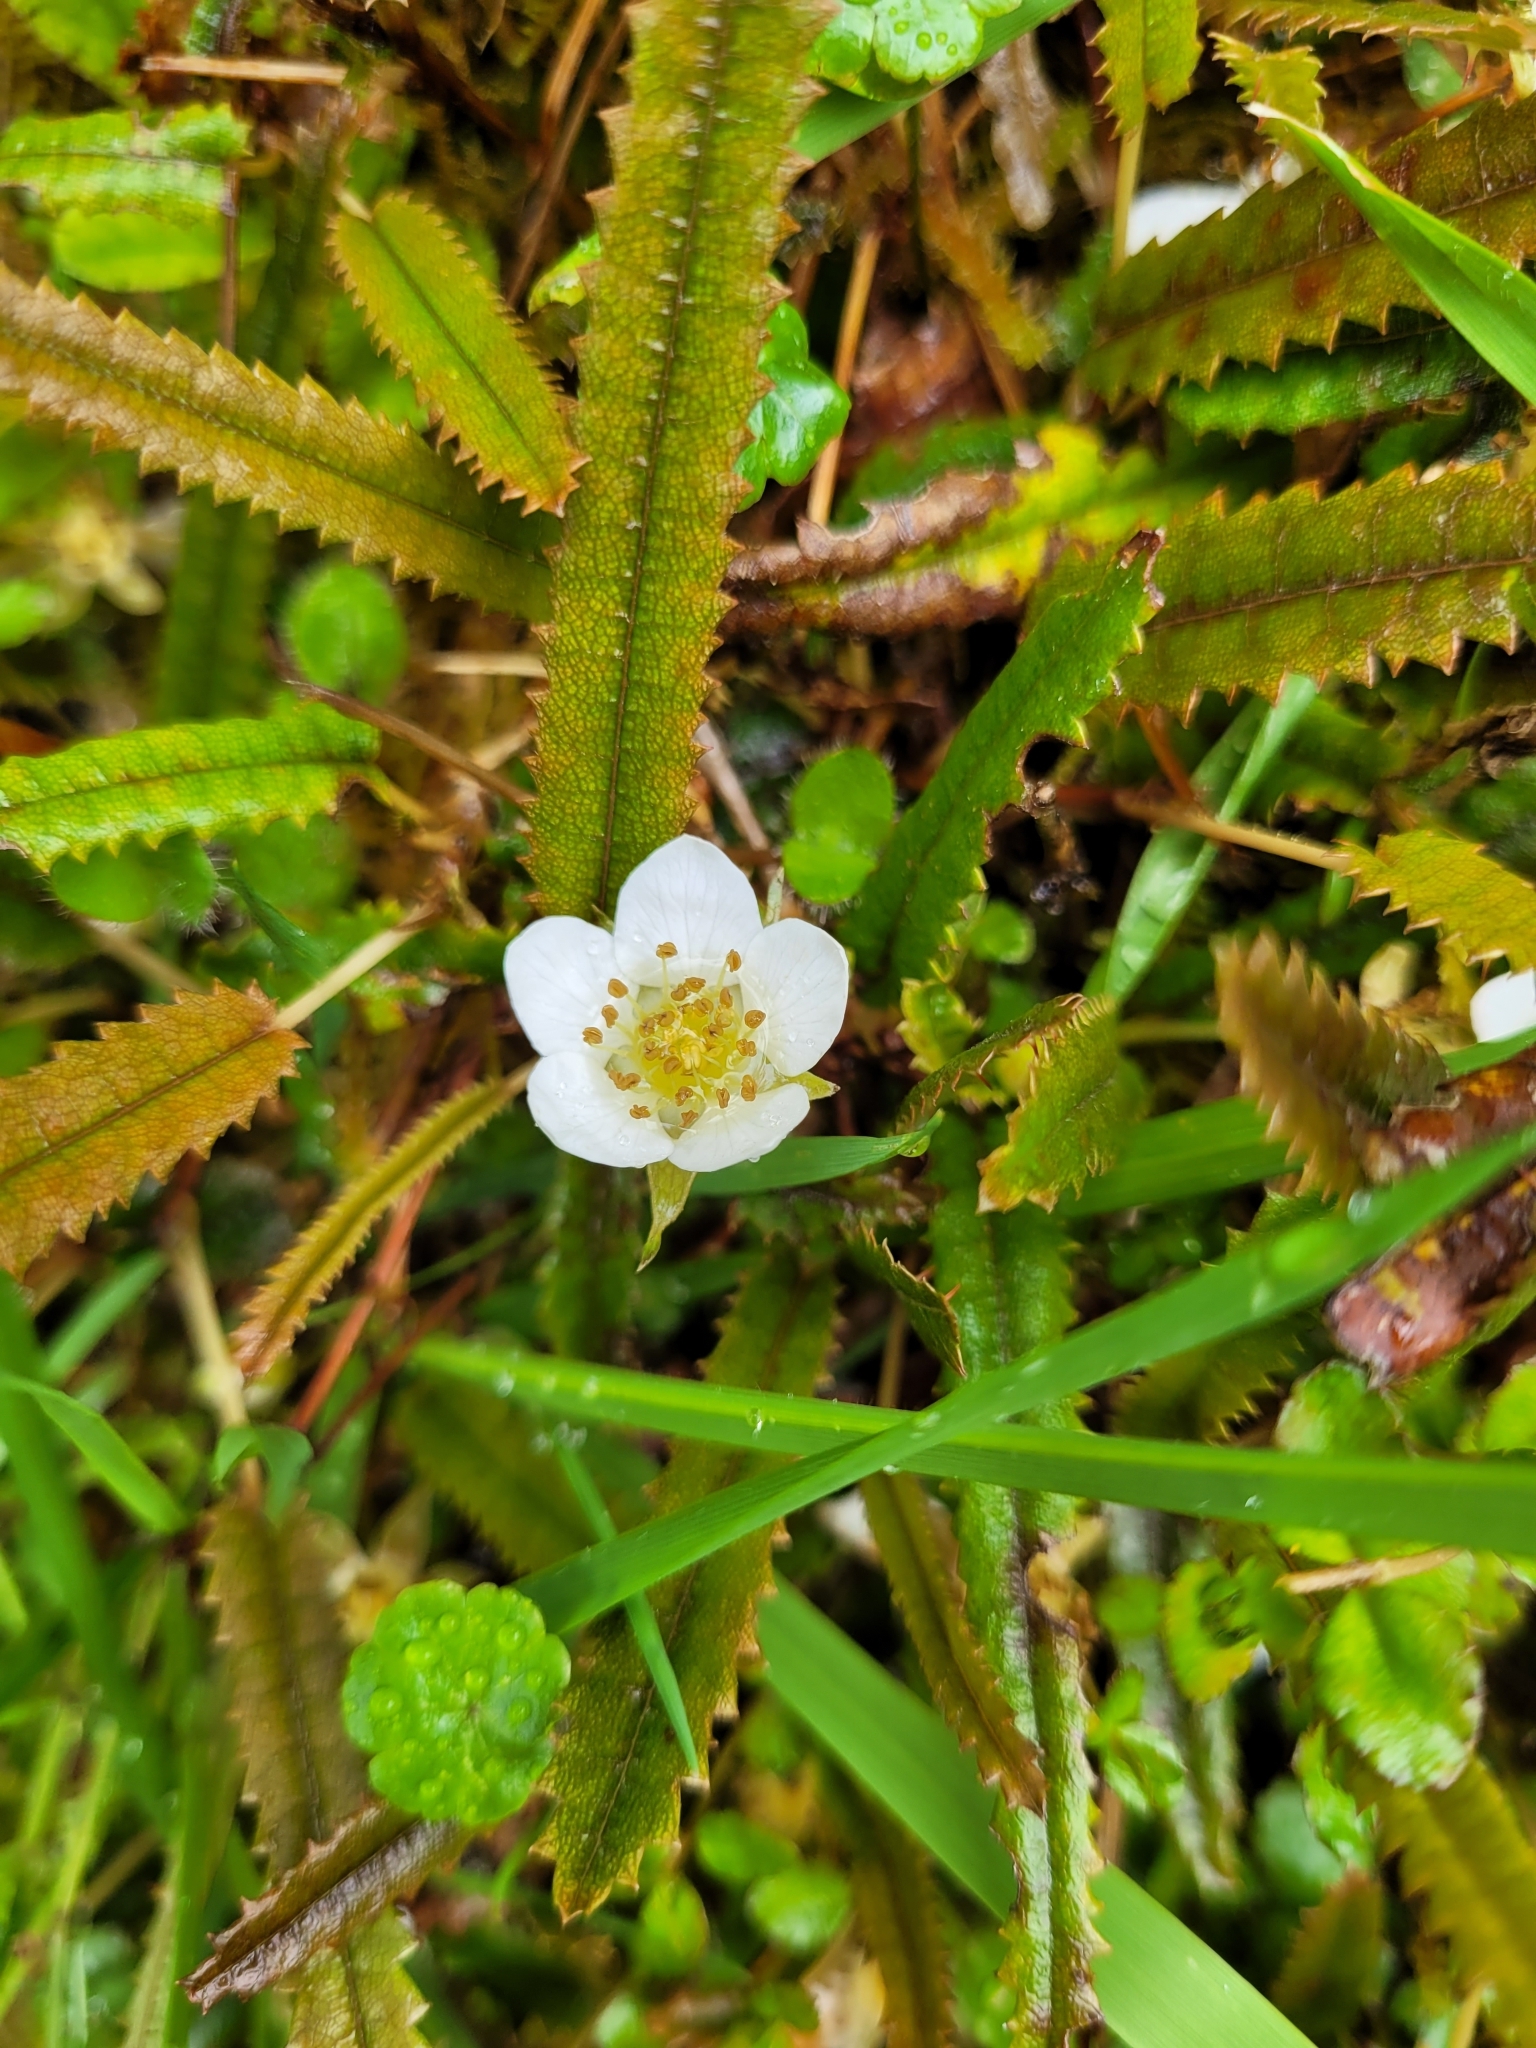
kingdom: Plantae
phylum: Tracheophyta
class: Magnoliopsida
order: Rosales
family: Rosaceae
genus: Rubus
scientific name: Rubus parvus
